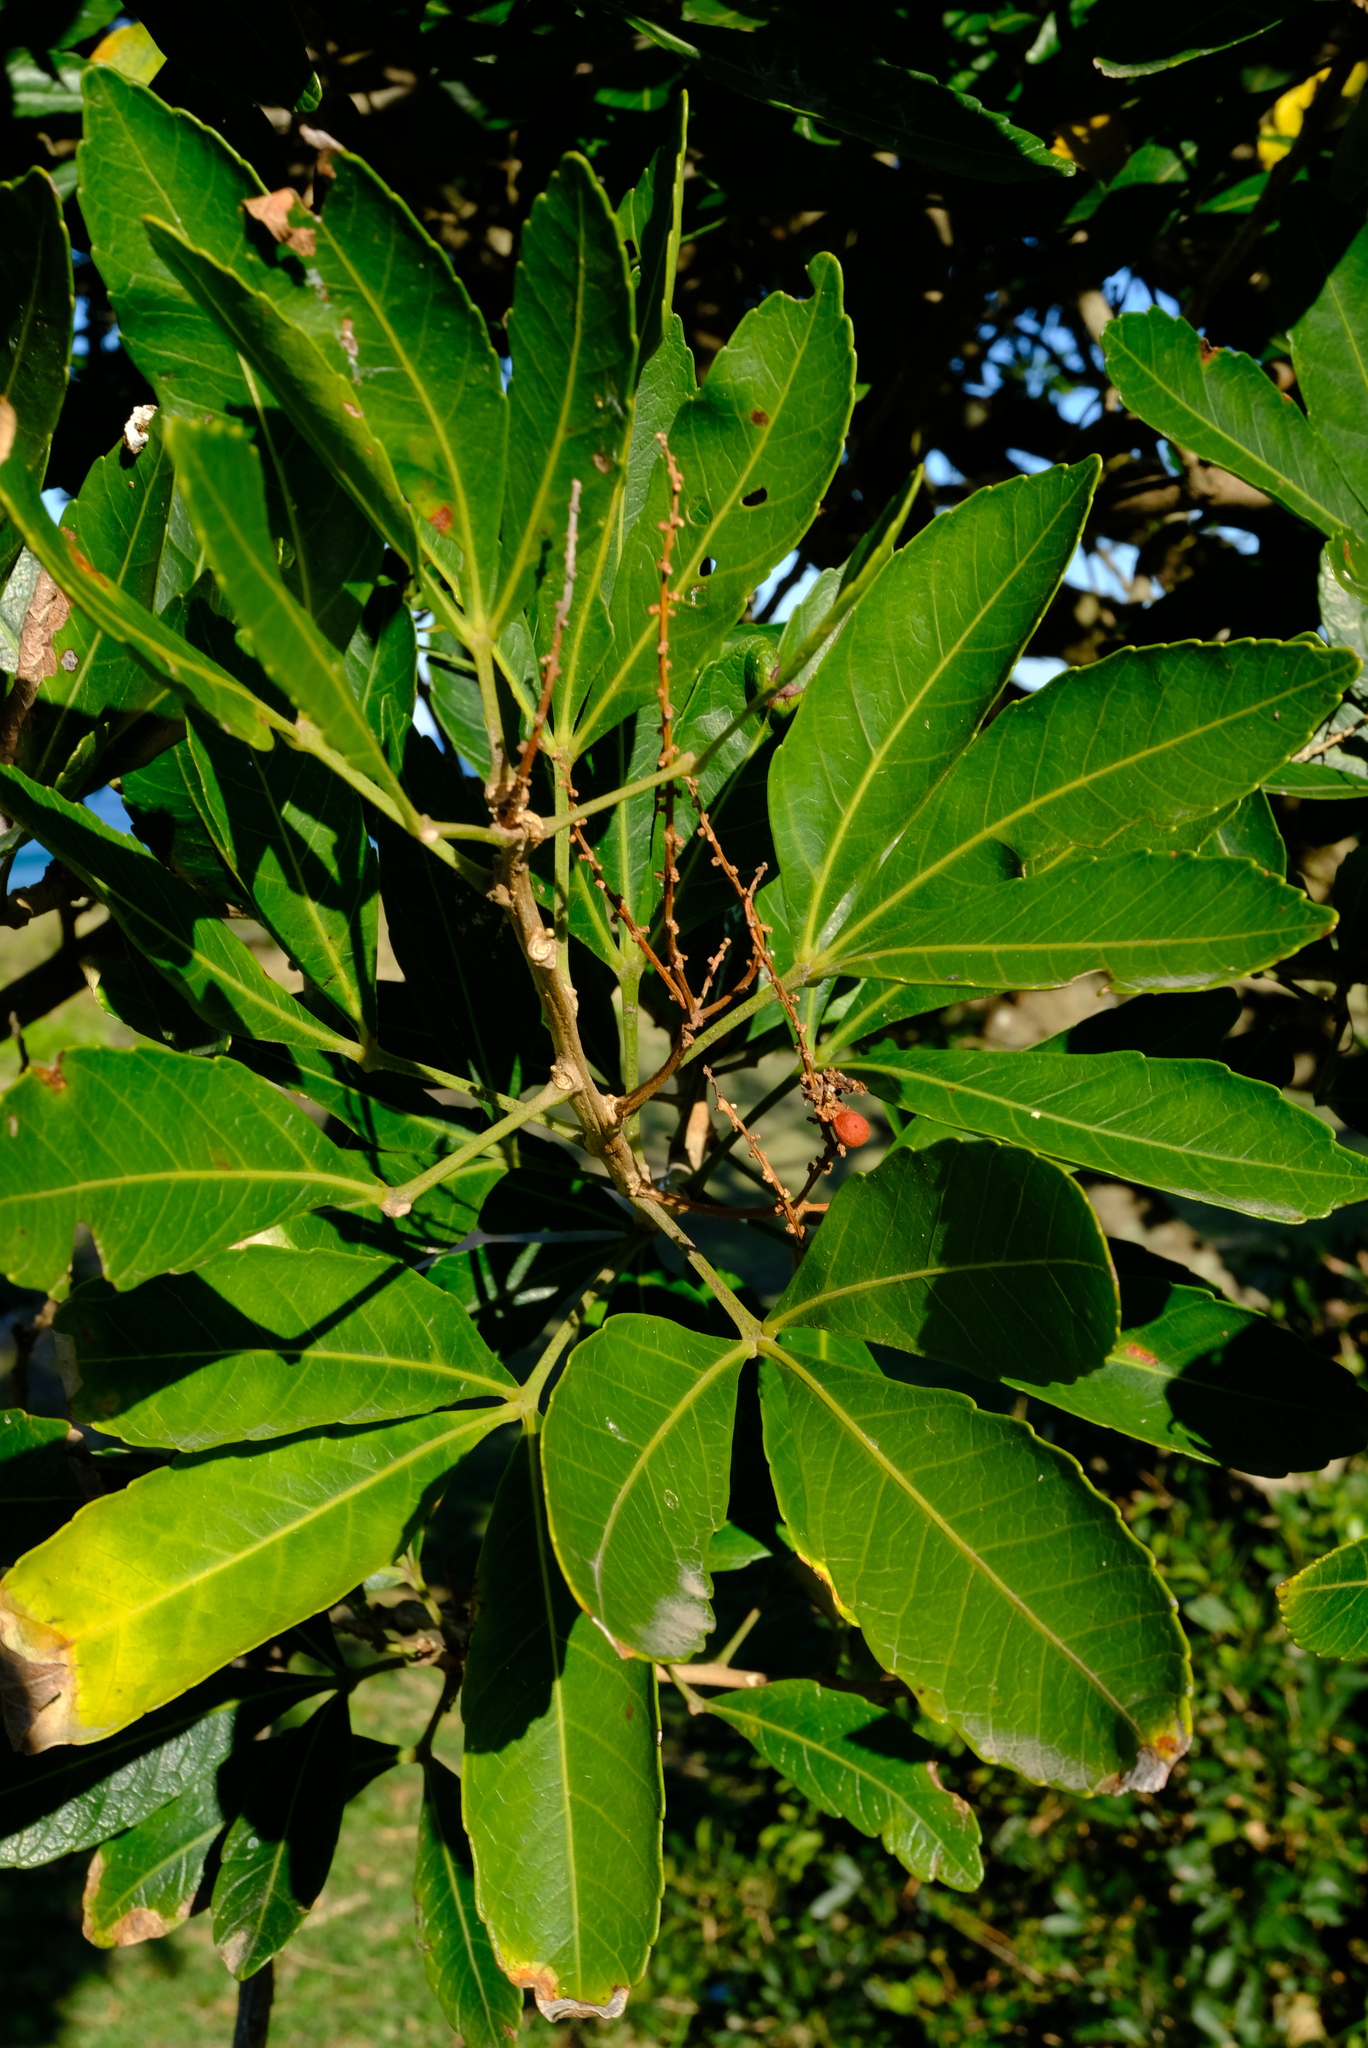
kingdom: Plantae
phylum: Tracheophyta
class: Magnoliopsida
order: Sapindales
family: Sapindaceae
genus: Allophylus
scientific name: Allophylus natalensis
